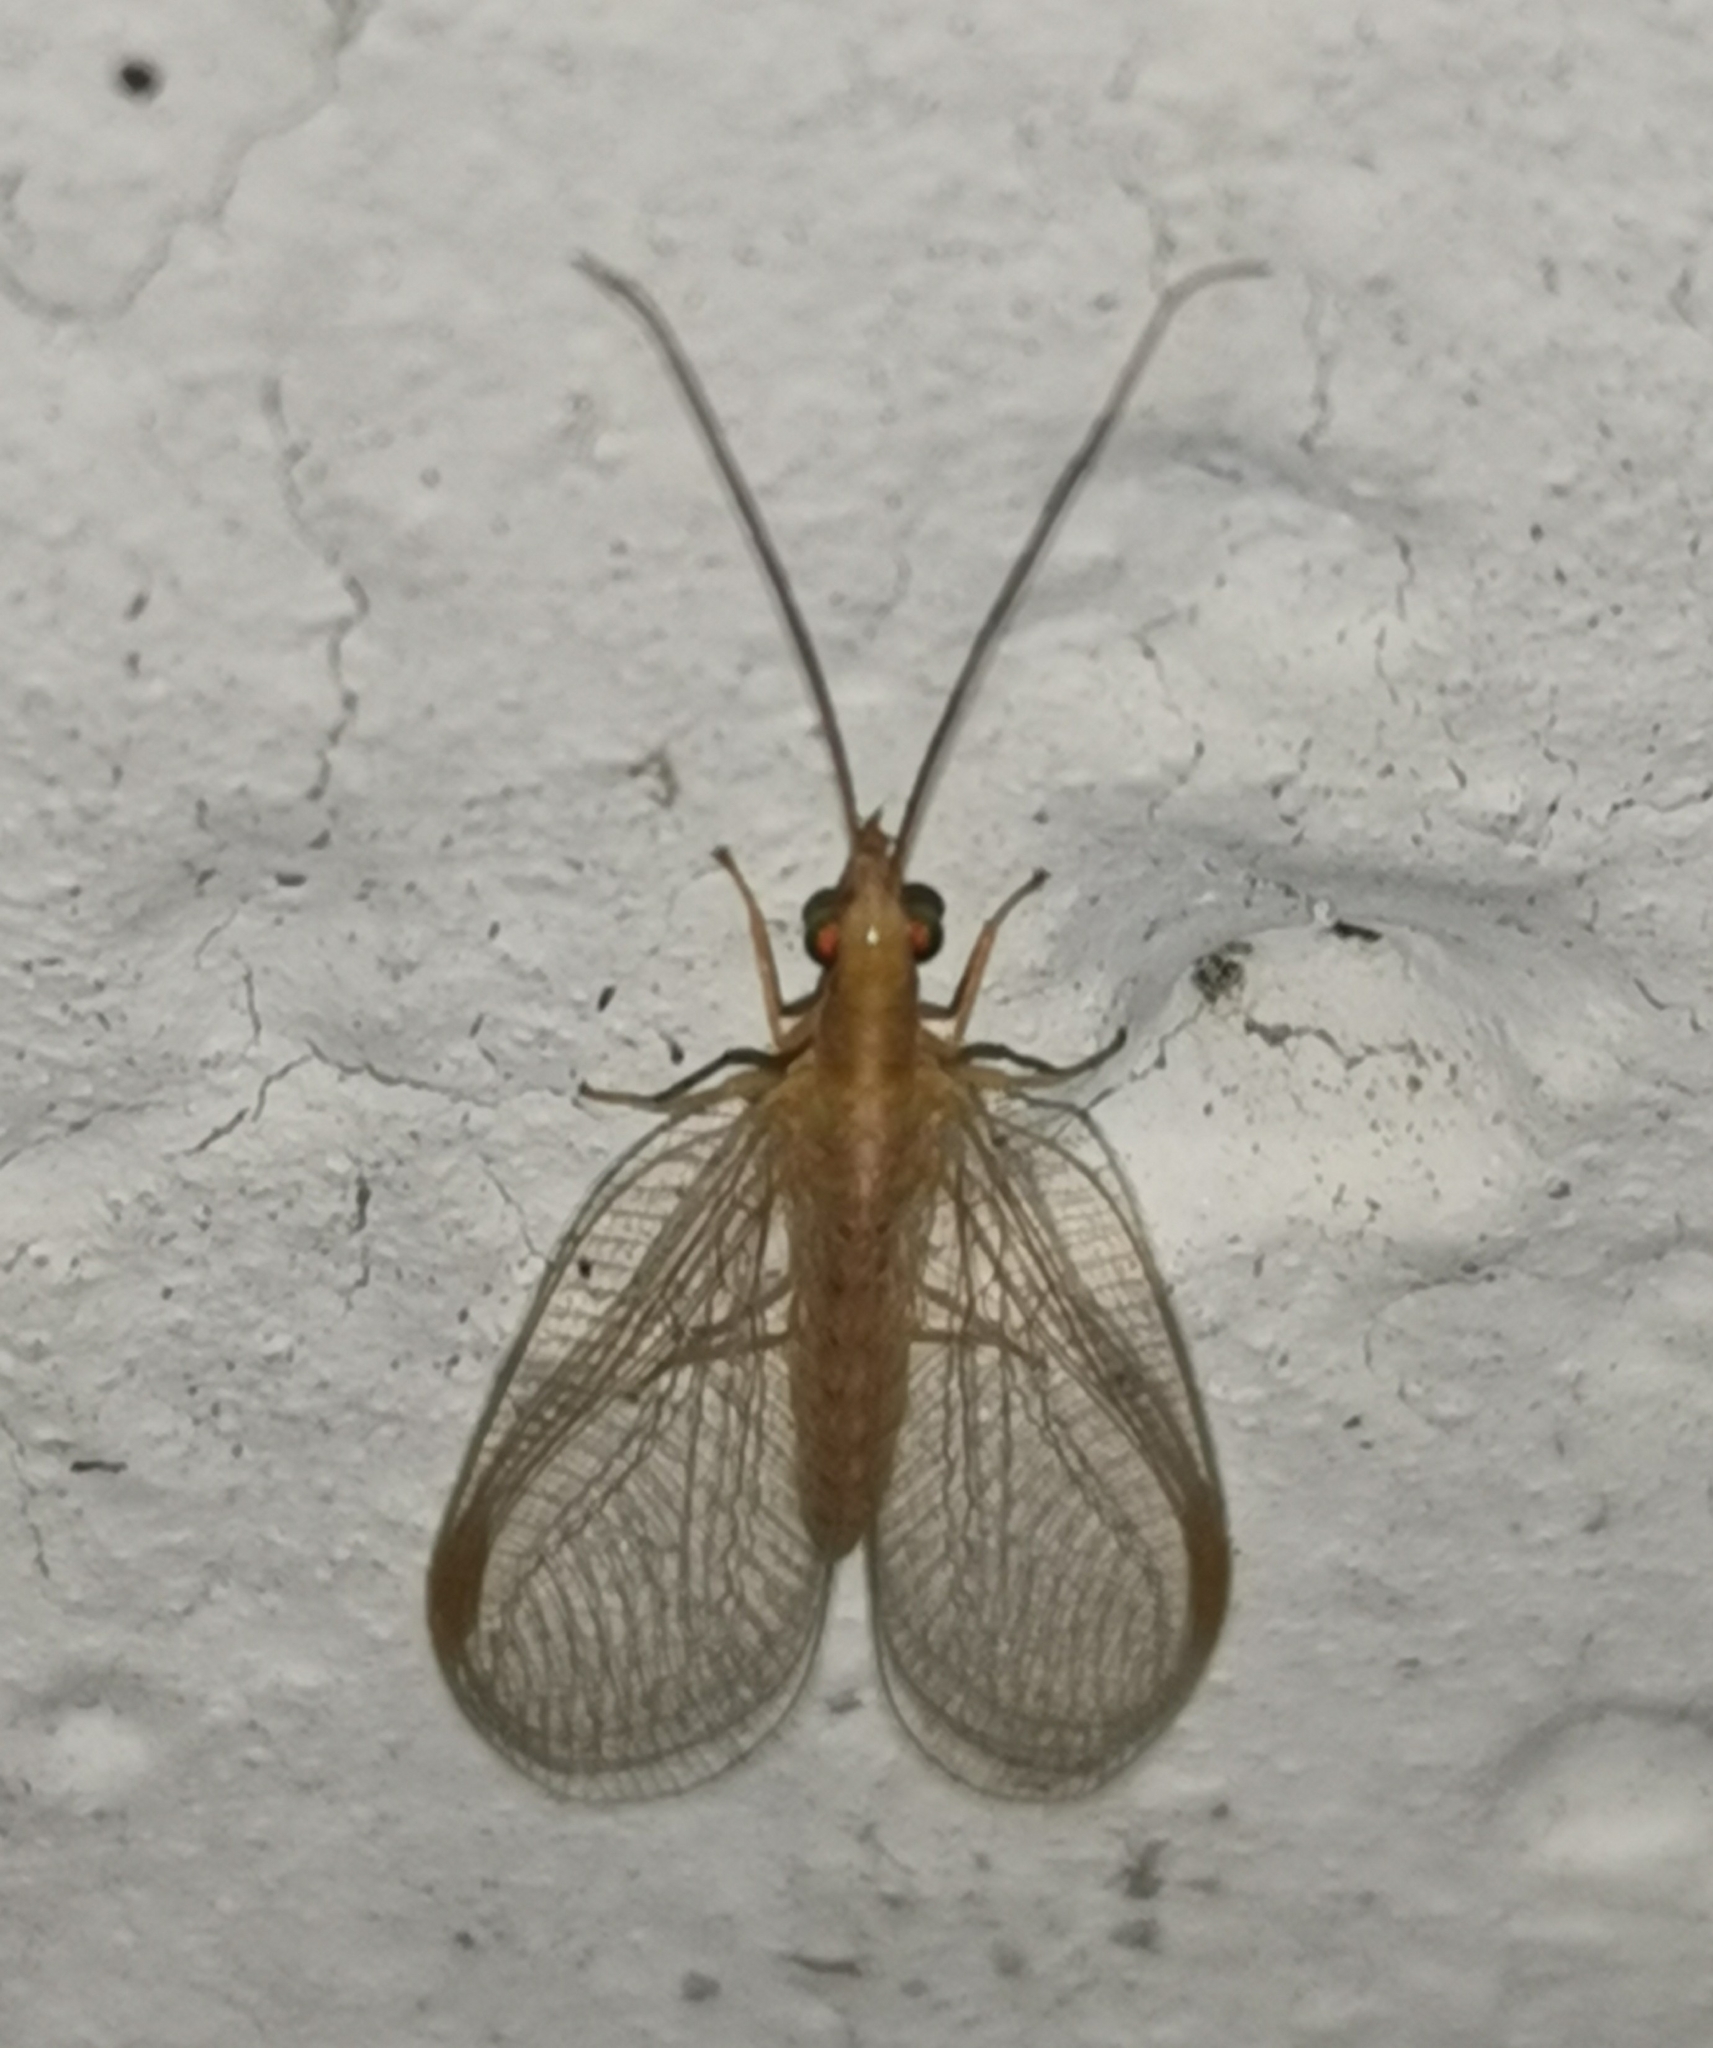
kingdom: Animalia
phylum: Arthropoda
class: Insecta
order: Neuroptera
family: Chrysopidae
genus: Chrysoperla
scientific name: Chrysoperla
